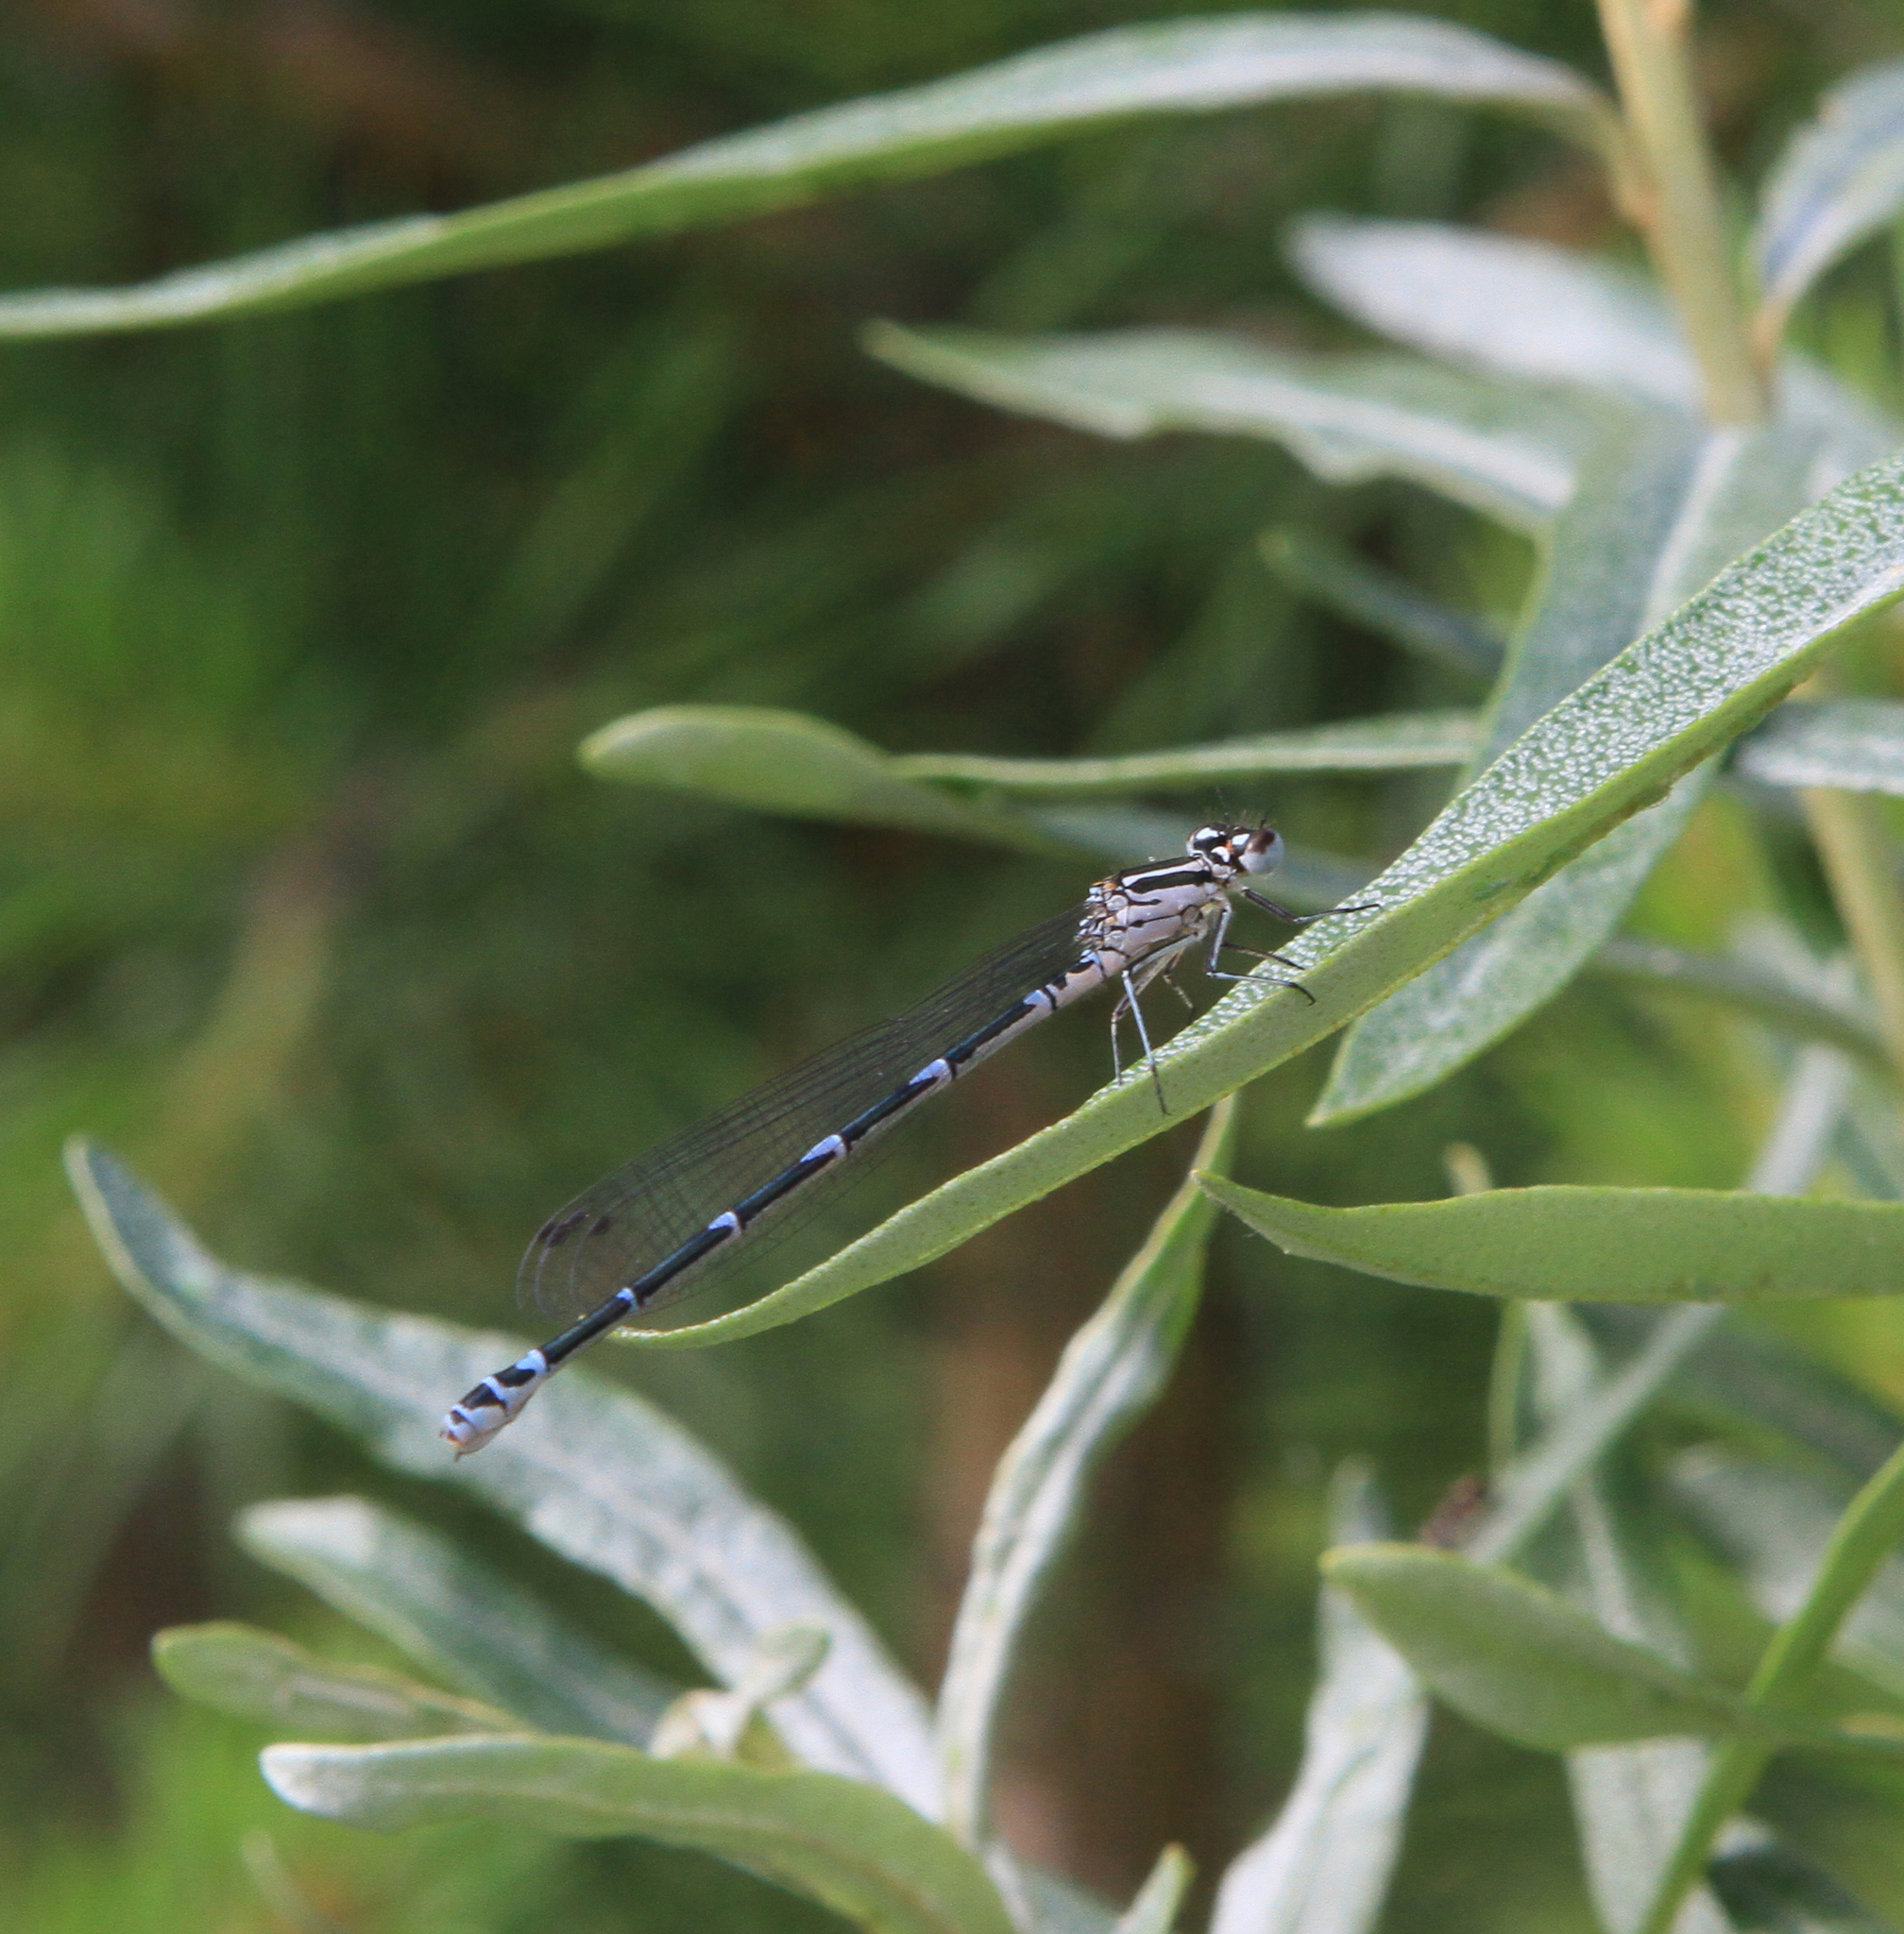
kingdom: Animalia
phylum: Arthropoda
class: Insecta
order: Odonata
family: Coenagrionidae
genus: Coenagrion
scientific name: Coenagrion puella
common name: Azure damselfly
